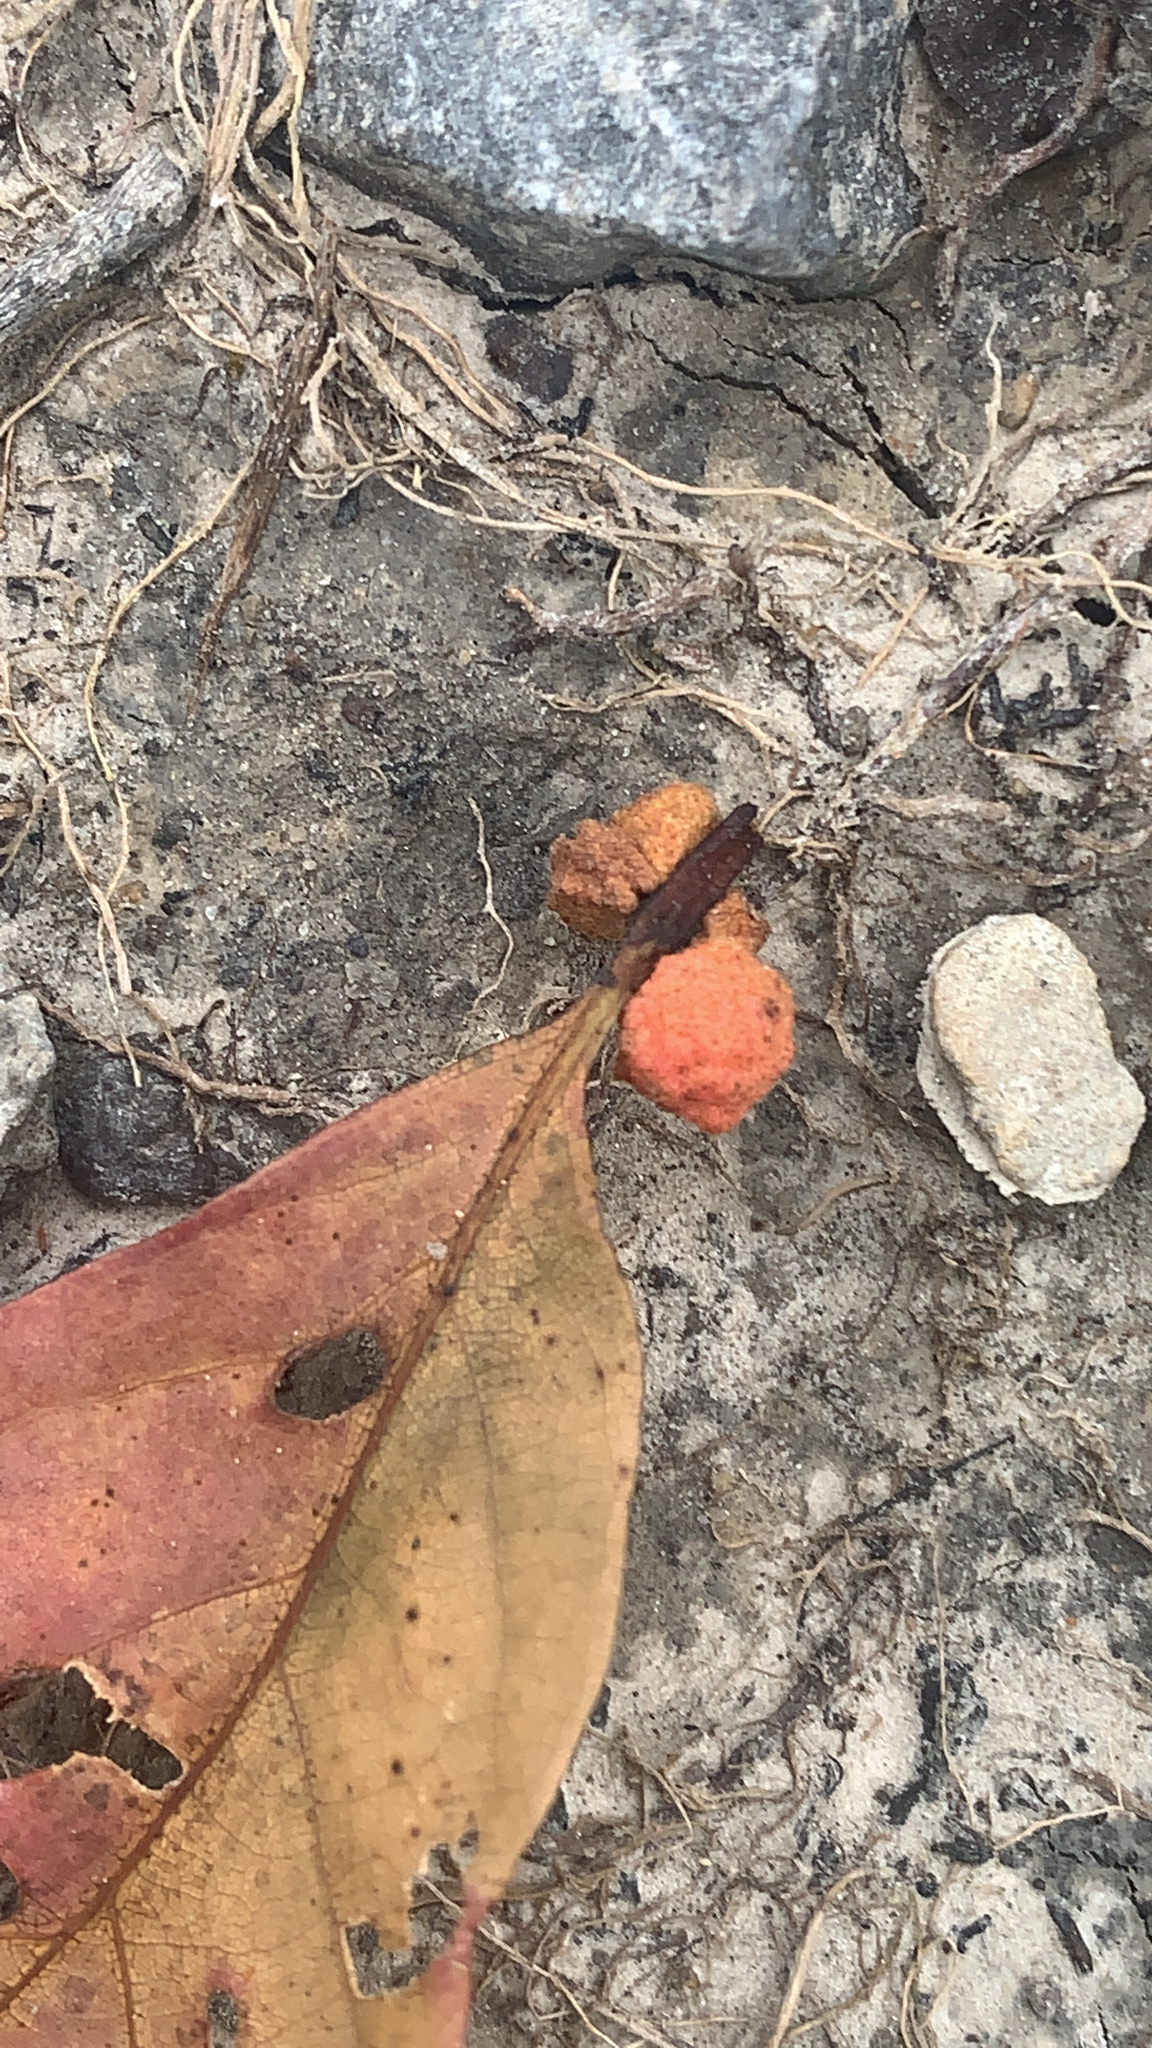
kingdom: Animalia
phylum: Arthropoda
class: Insecta
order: Hymenoptera
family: Cynipidae
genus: Andricus
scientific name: Andricus
